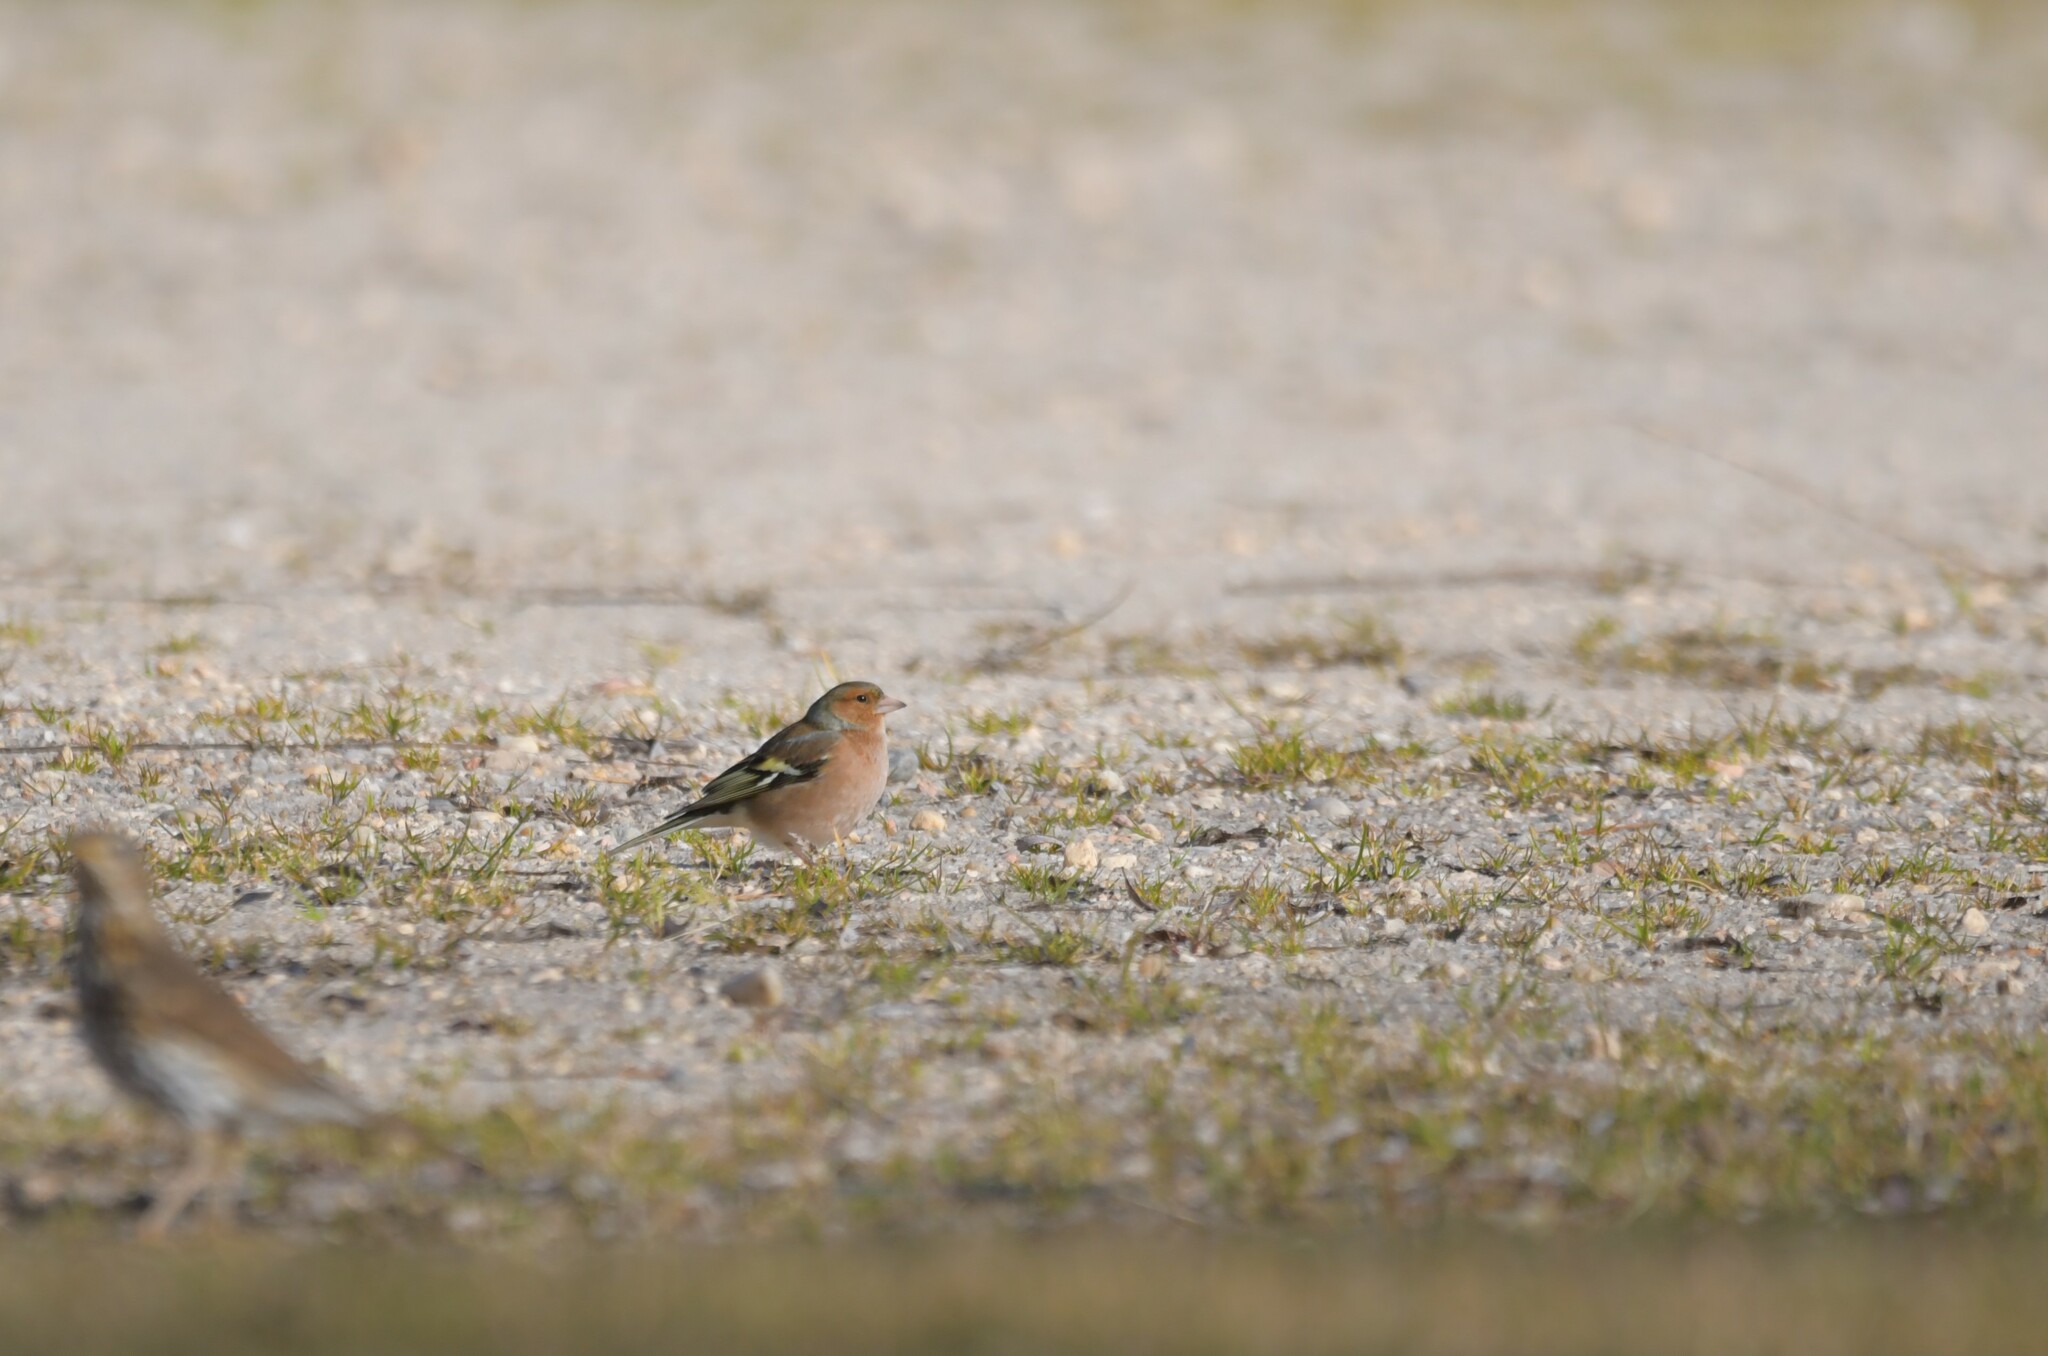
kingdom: Animalia
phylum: Chordata
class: Aves
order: Passeriformes
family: Fringillidae
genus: Fringilla
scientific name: Fringilla coelebs
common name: Common chaffinch
